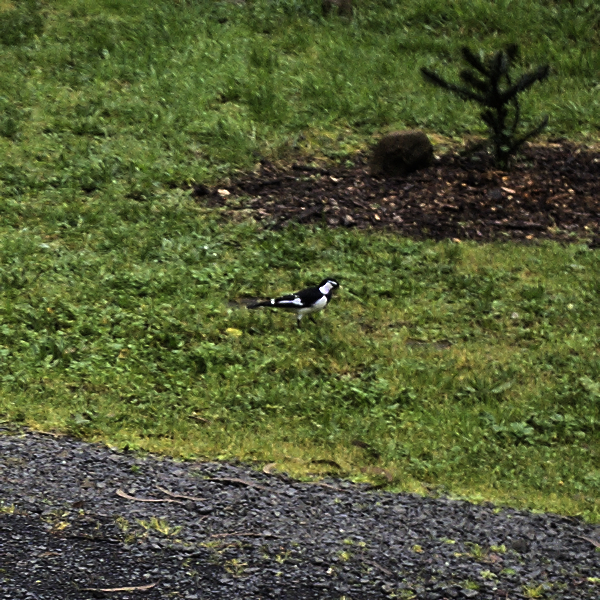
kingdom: Animalia
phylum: Chordata
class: Aves
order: Passeriformes
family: Monarchidae
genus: Grallina
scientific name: Grallina cyanoleuca
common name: Magpie-lark
